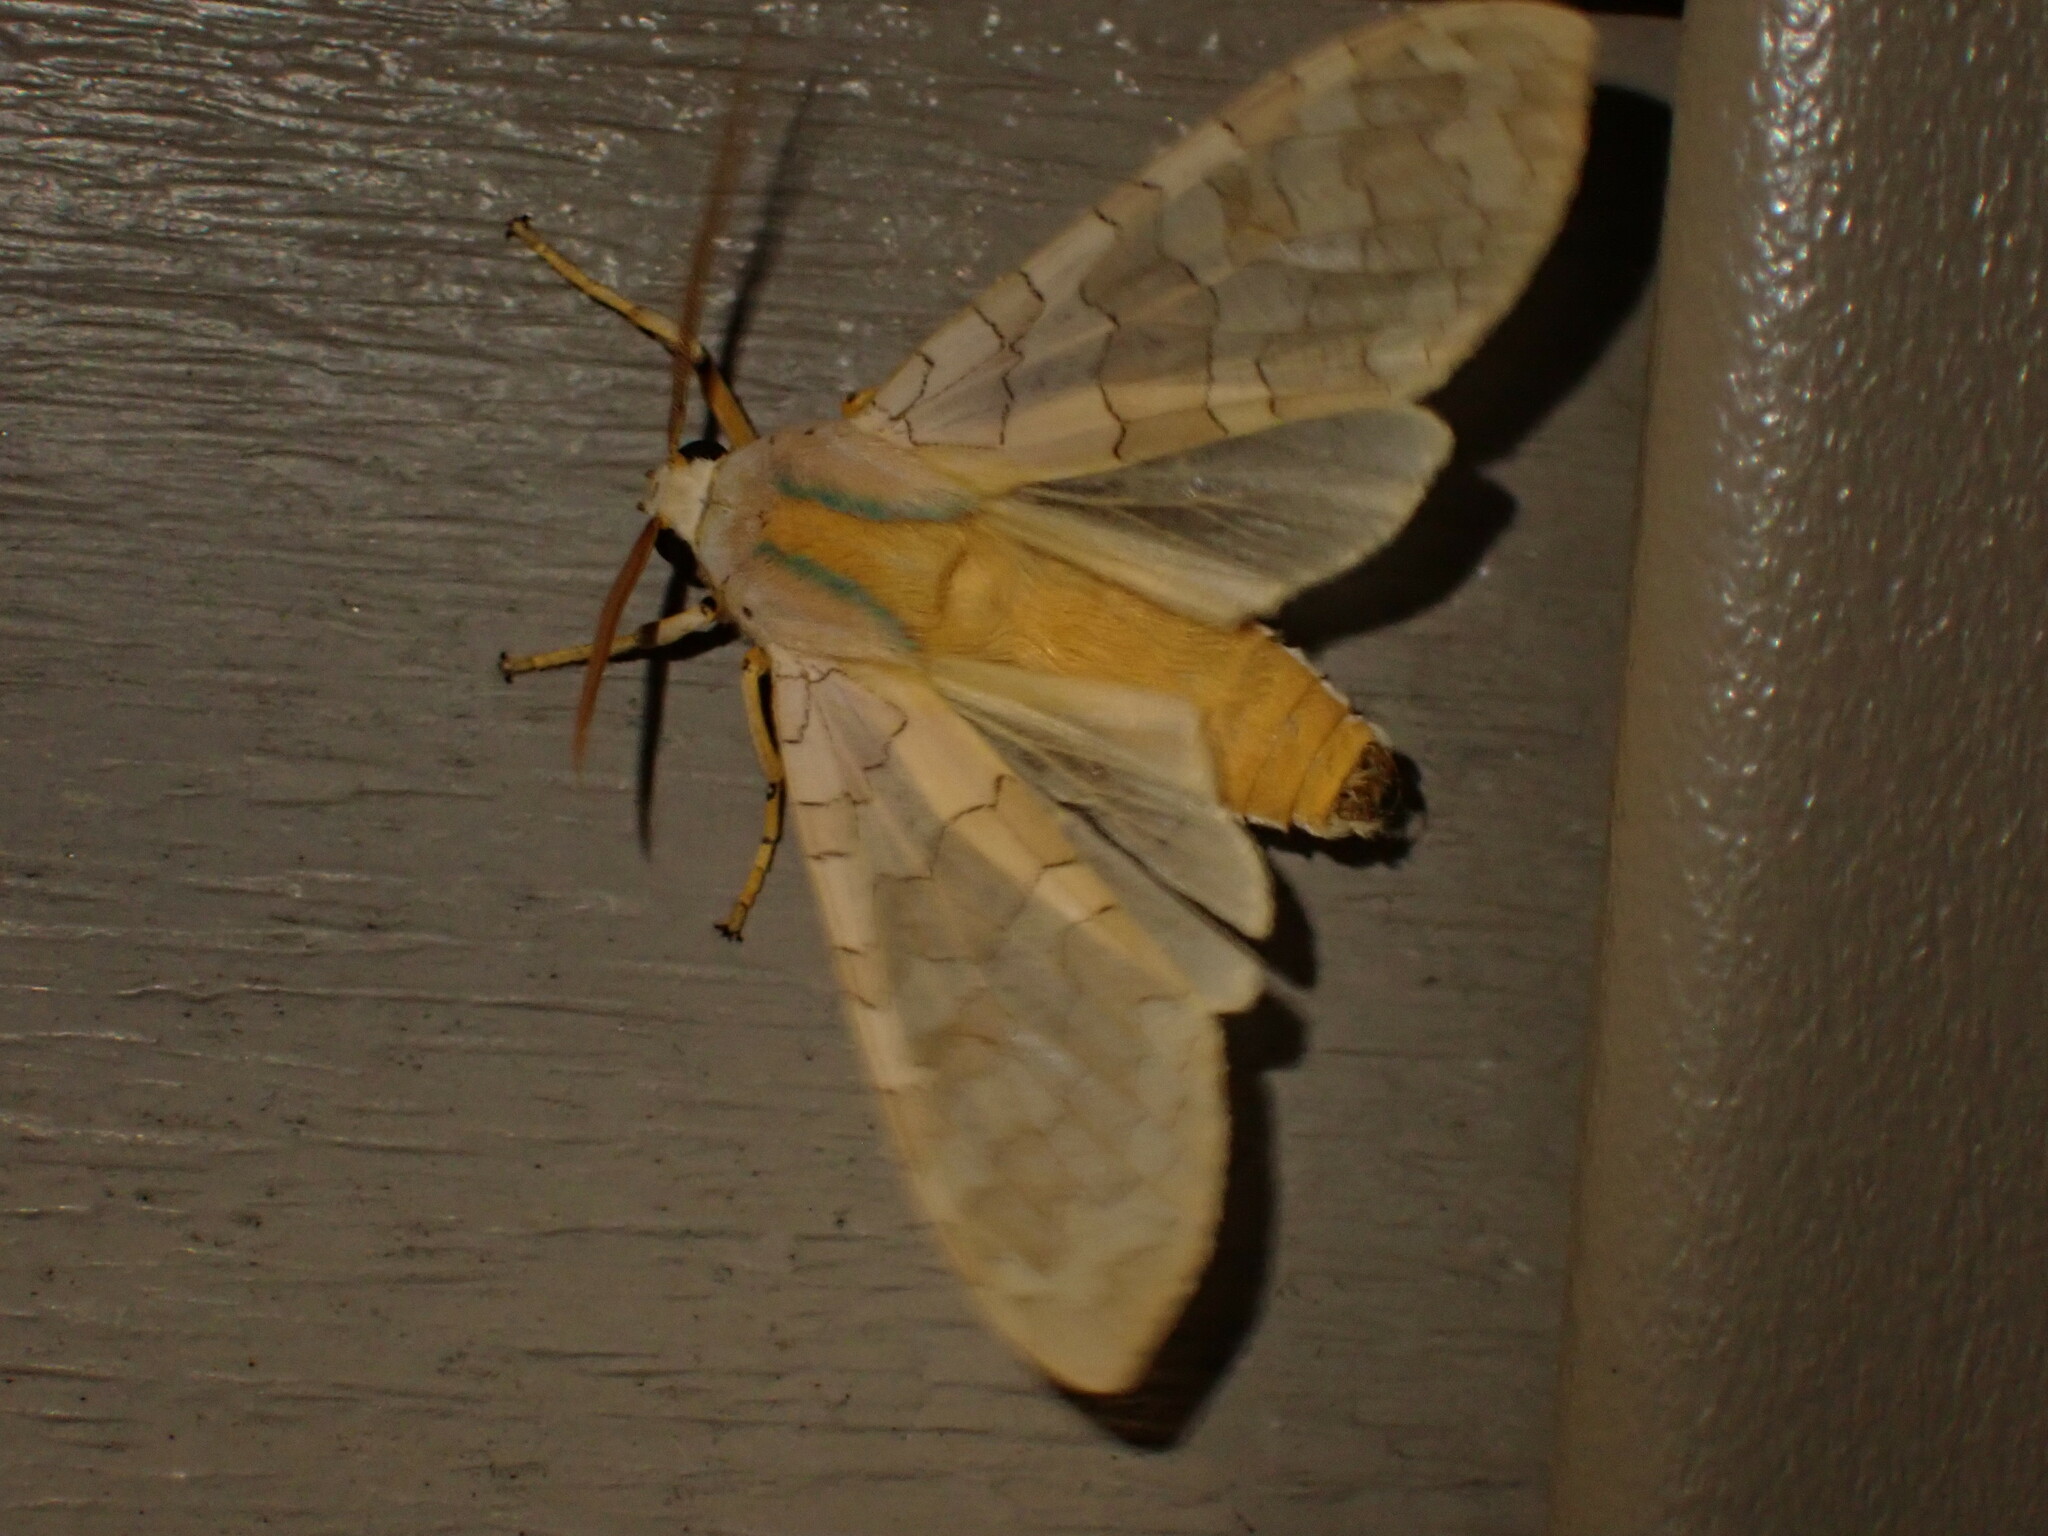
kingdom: Animalia
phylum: Arthropoda
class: Insecta
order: Lepidoptera
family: Erebidae
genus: Halysidota
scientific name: Halysidota
